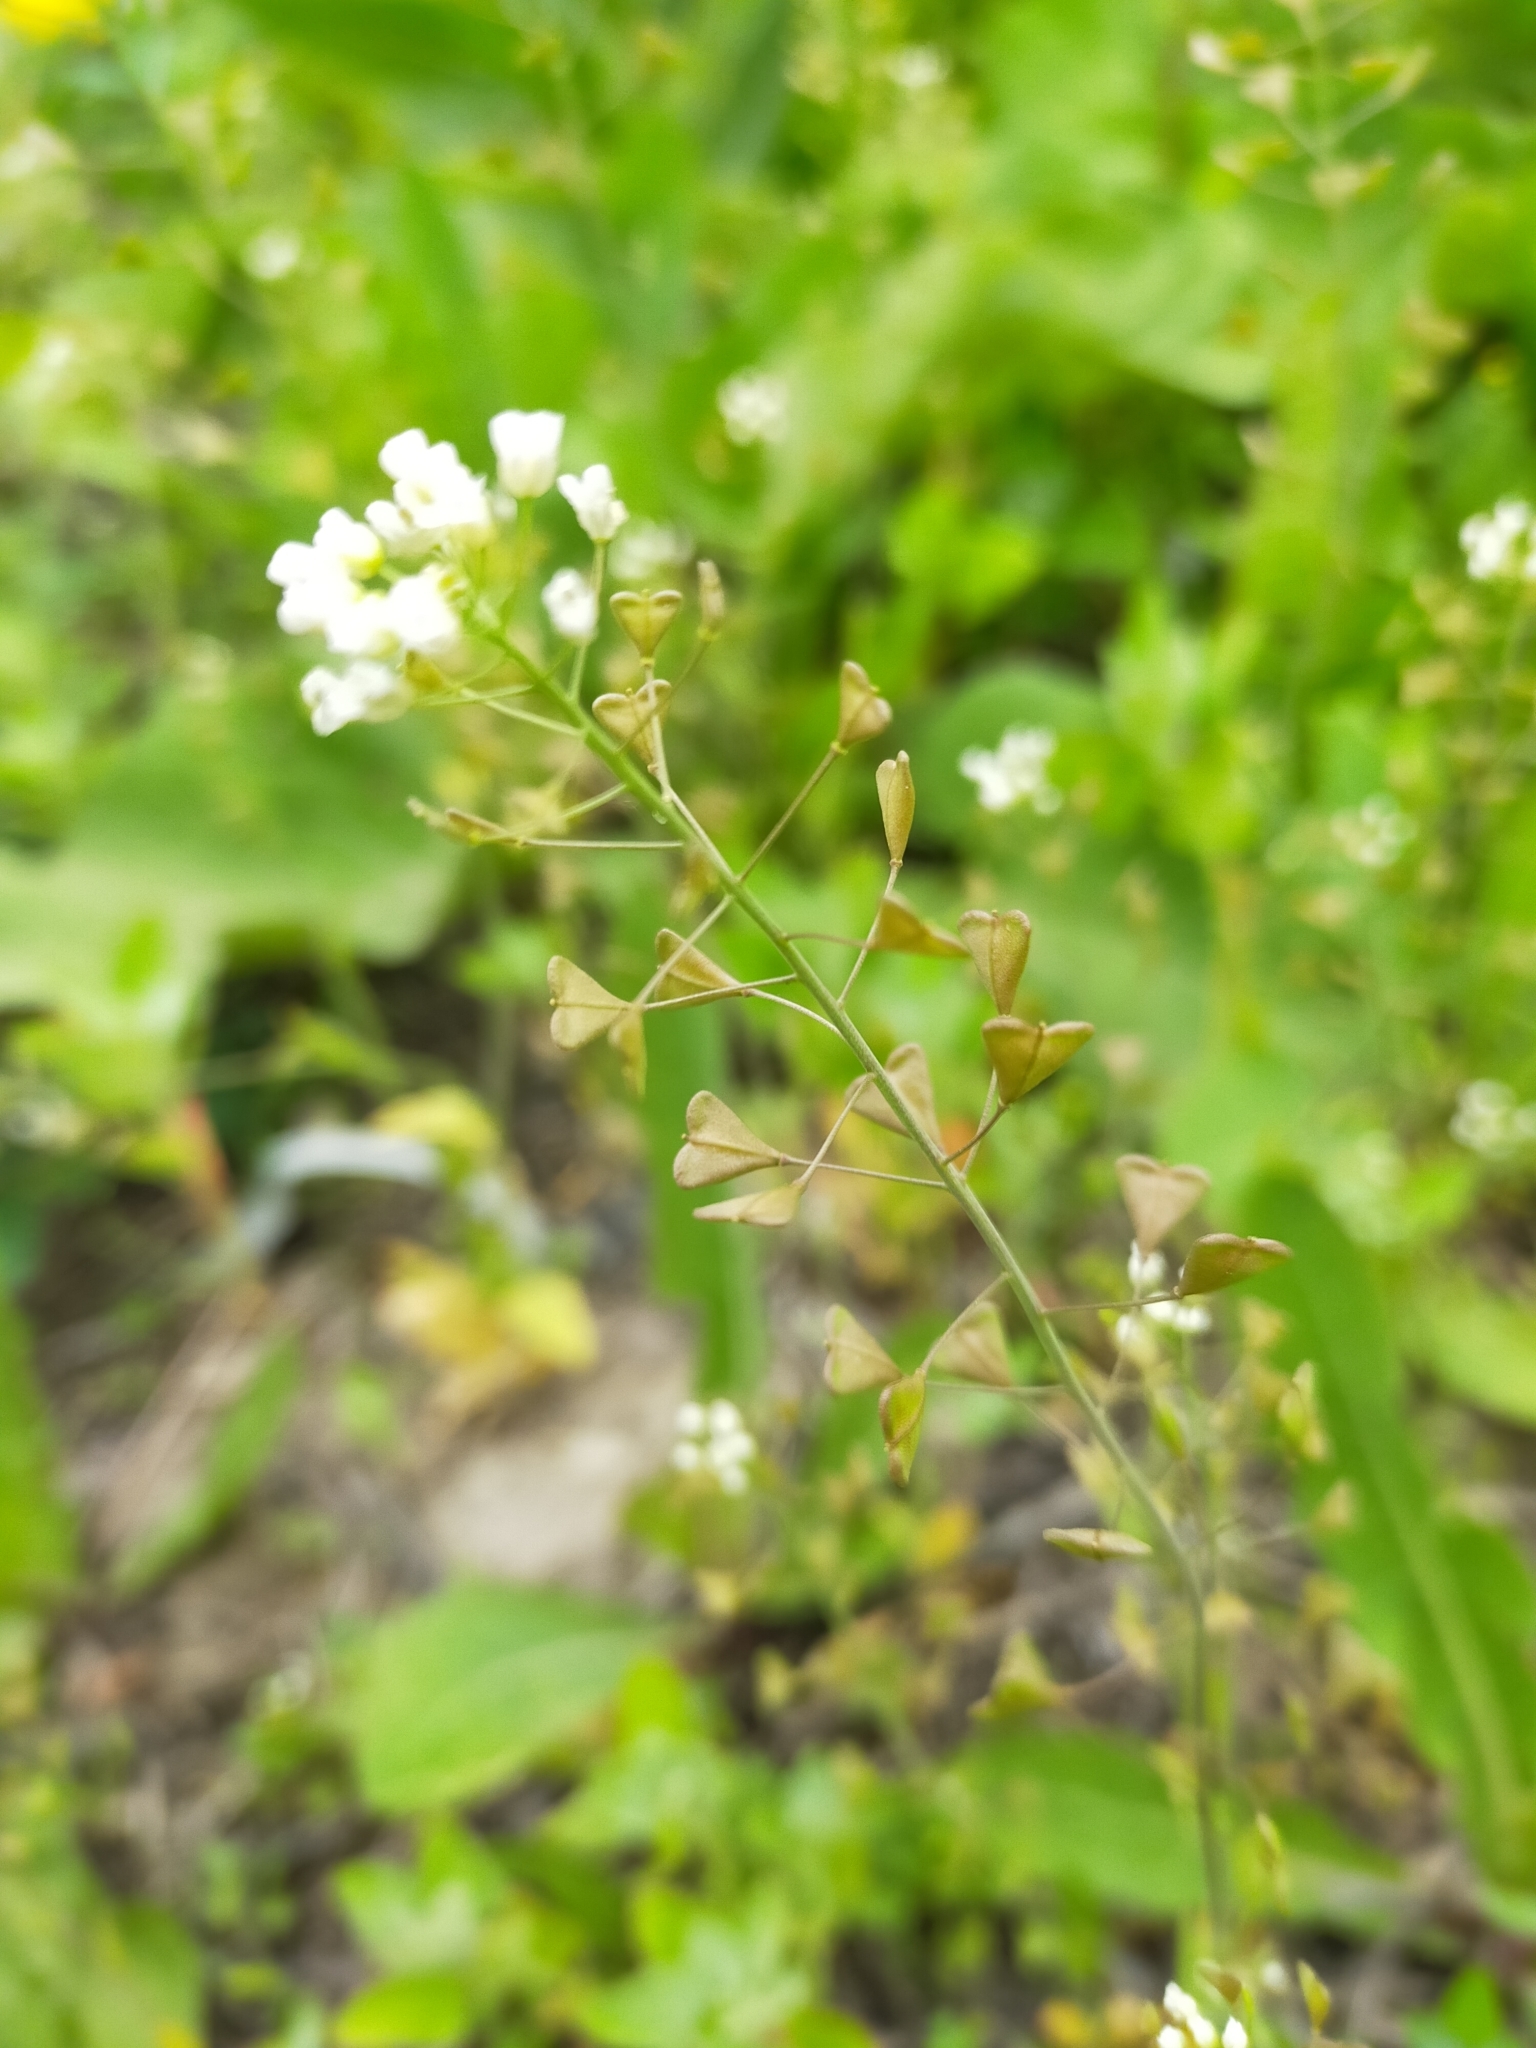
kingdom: Plantae
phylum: Tracheophyta
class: Magnoliopsida
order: Brassicales
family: Brassicaceae
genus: Capsella
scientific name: Capsella bursa-pastoris
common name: Shepherd's purse
